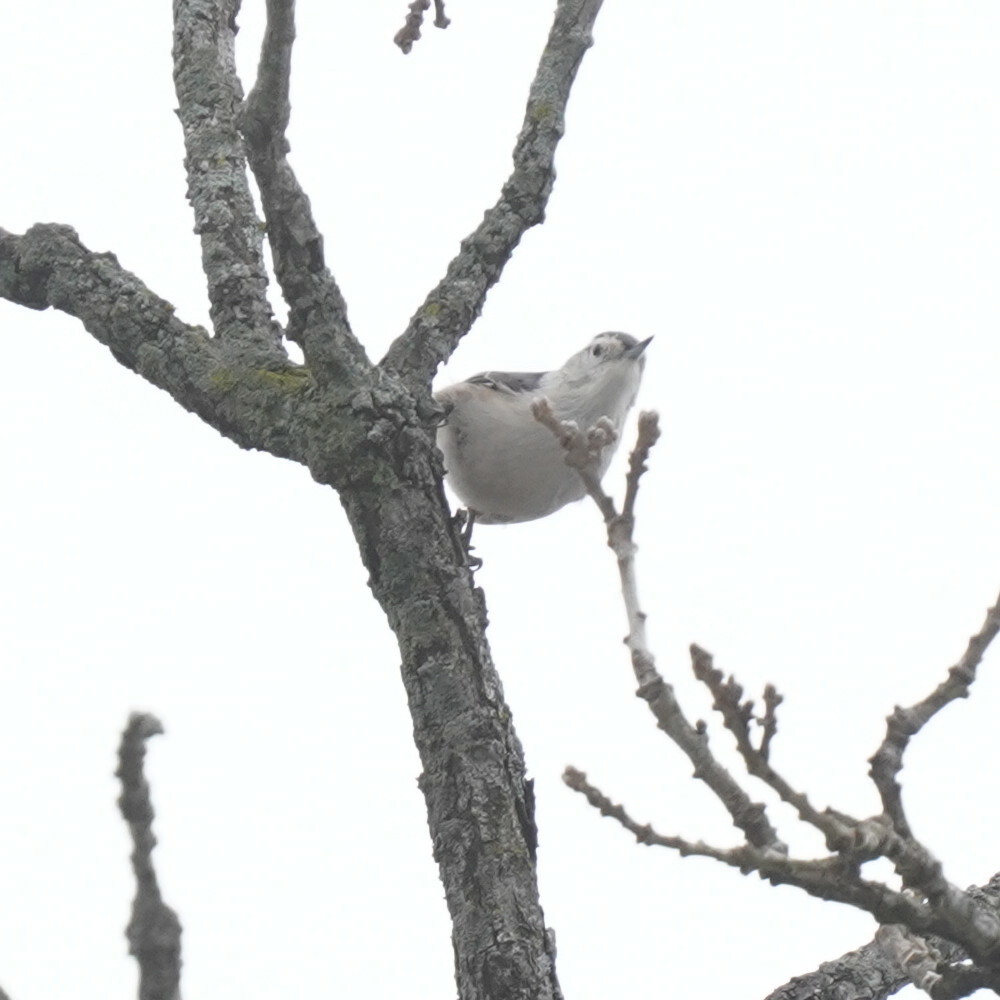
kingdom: Animalia
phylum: Chordata
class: Aves
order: Passeriformes
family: Sittidae
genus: Sitta
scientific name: Sitta carolinensis
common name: White-breasted nuthatch
